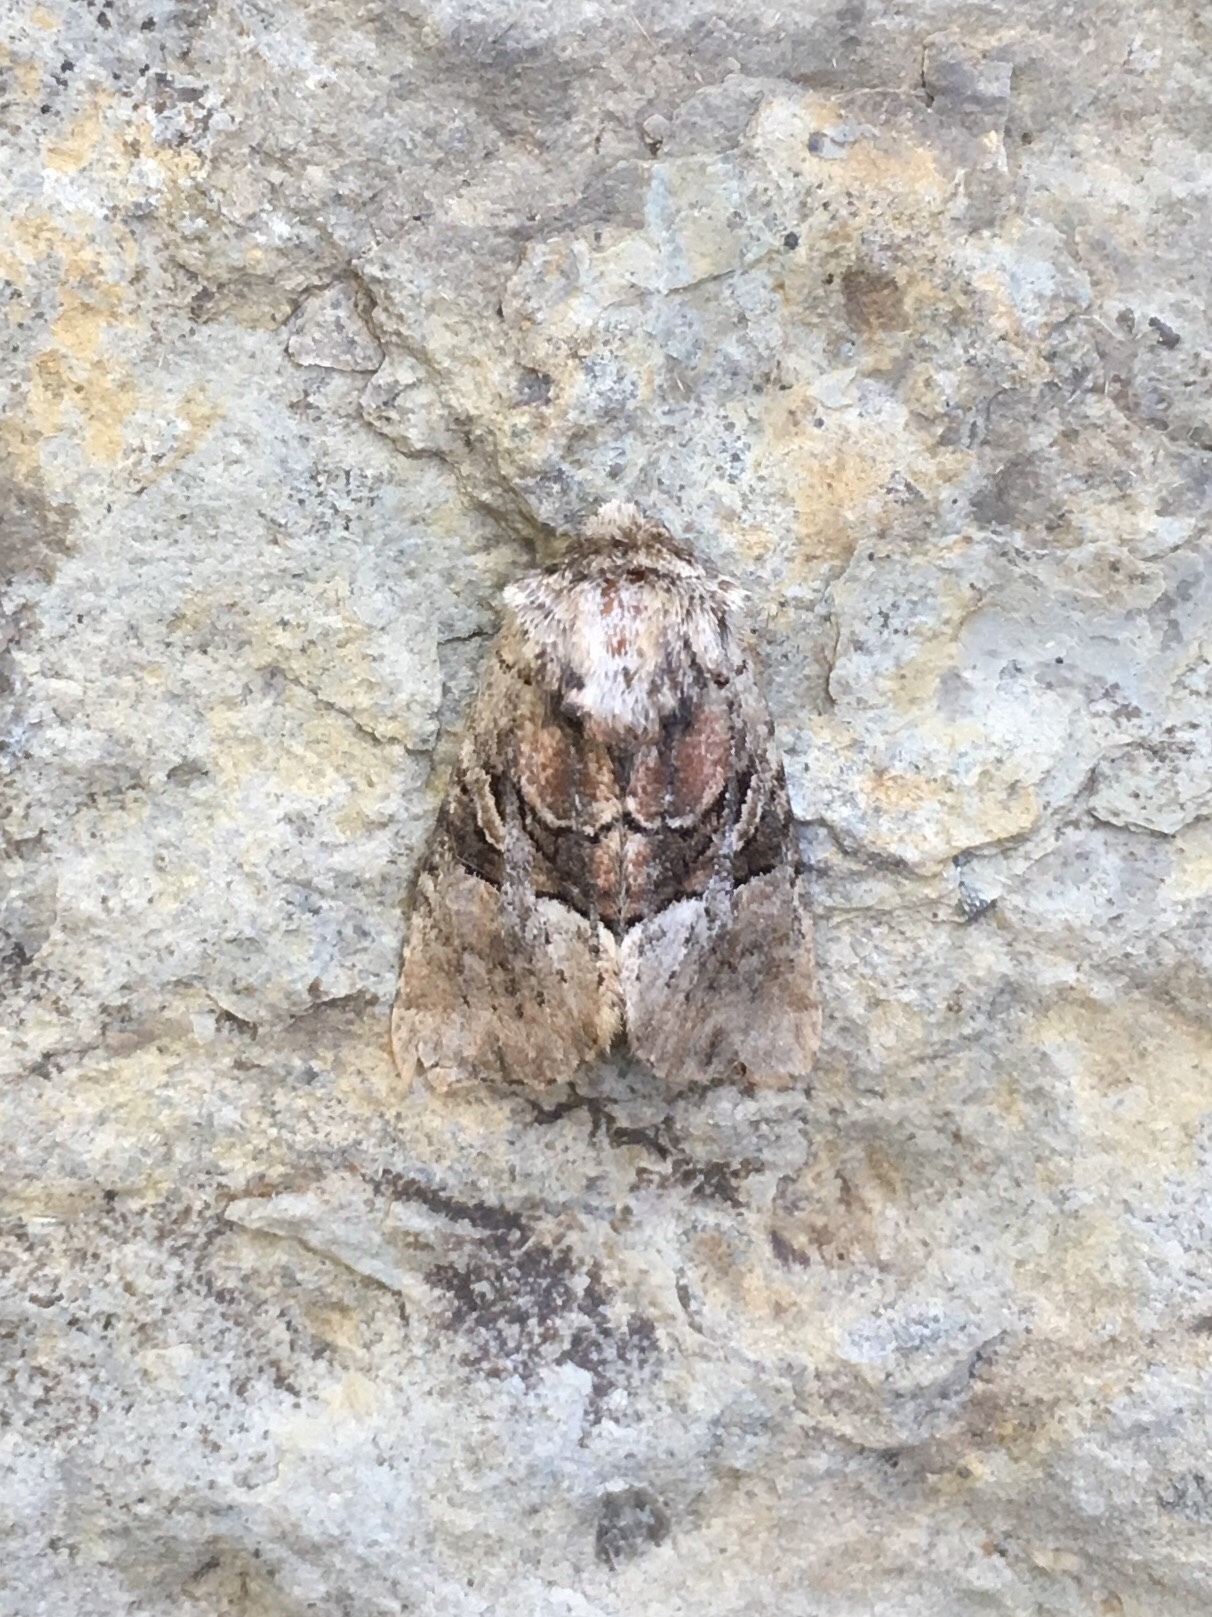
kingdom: Animalia
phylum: Arthropoda
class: Insecta
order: Lepidoptera
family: Noctuidae
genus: Meropleon
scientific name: Meropleon diversicolor
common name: Multicolored sedgeminer moth
